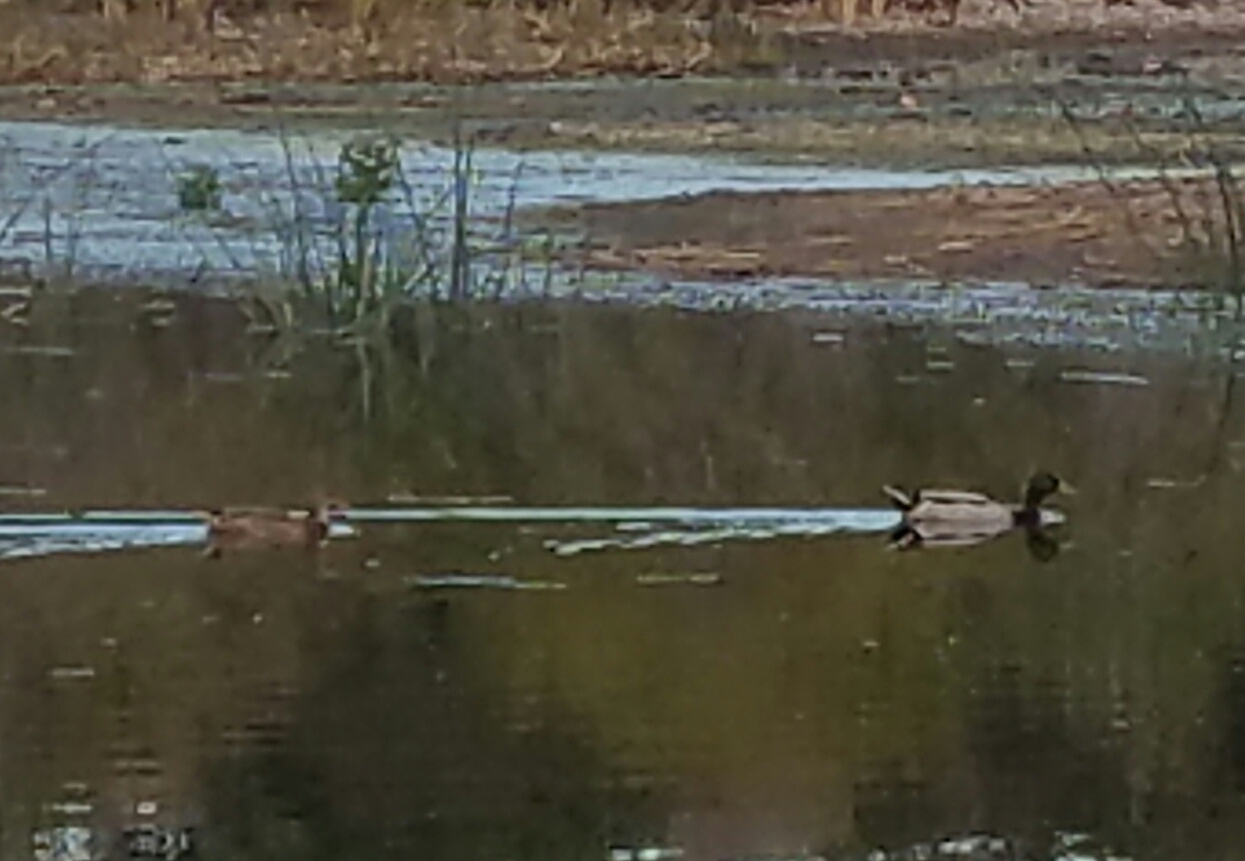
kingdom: Animalia
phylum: Chordata
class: Aves
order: Anseriformes
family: Anatidae
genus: Anas
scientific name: Anas platyrhynchos
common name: Mallard
